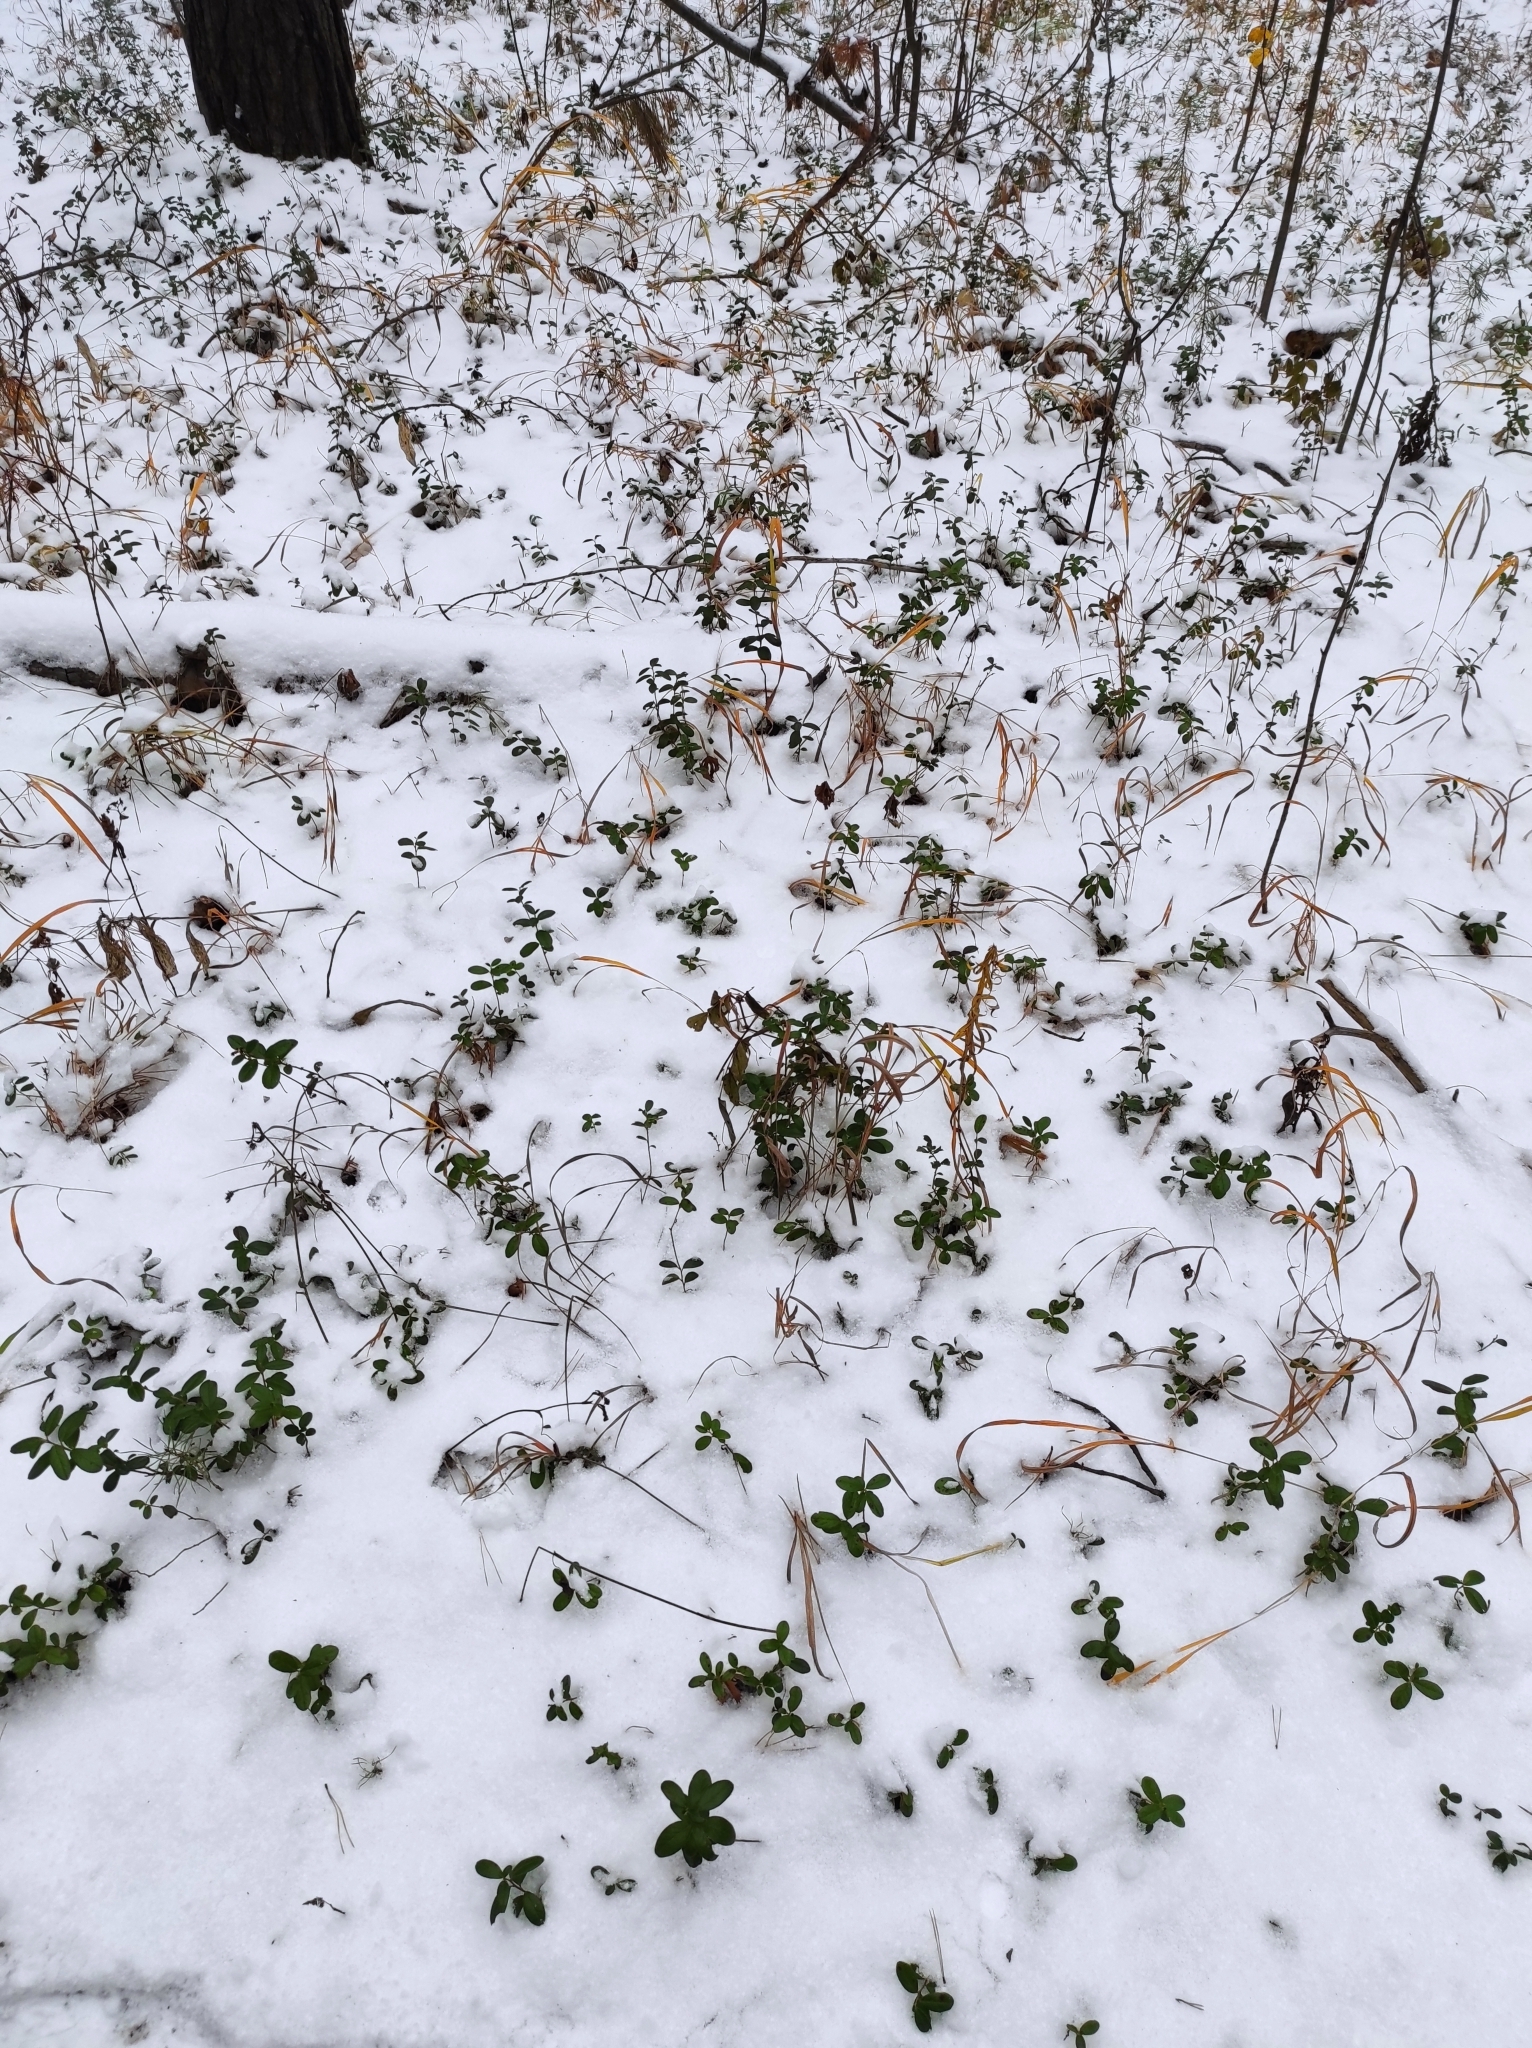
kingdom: Plantae
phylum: Tracheophyta
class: Magnoliopsida
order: Ericales
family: Ericaceae
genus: Vaccinium
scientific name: Vaccinium vitis-idaea
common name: Cowberry
